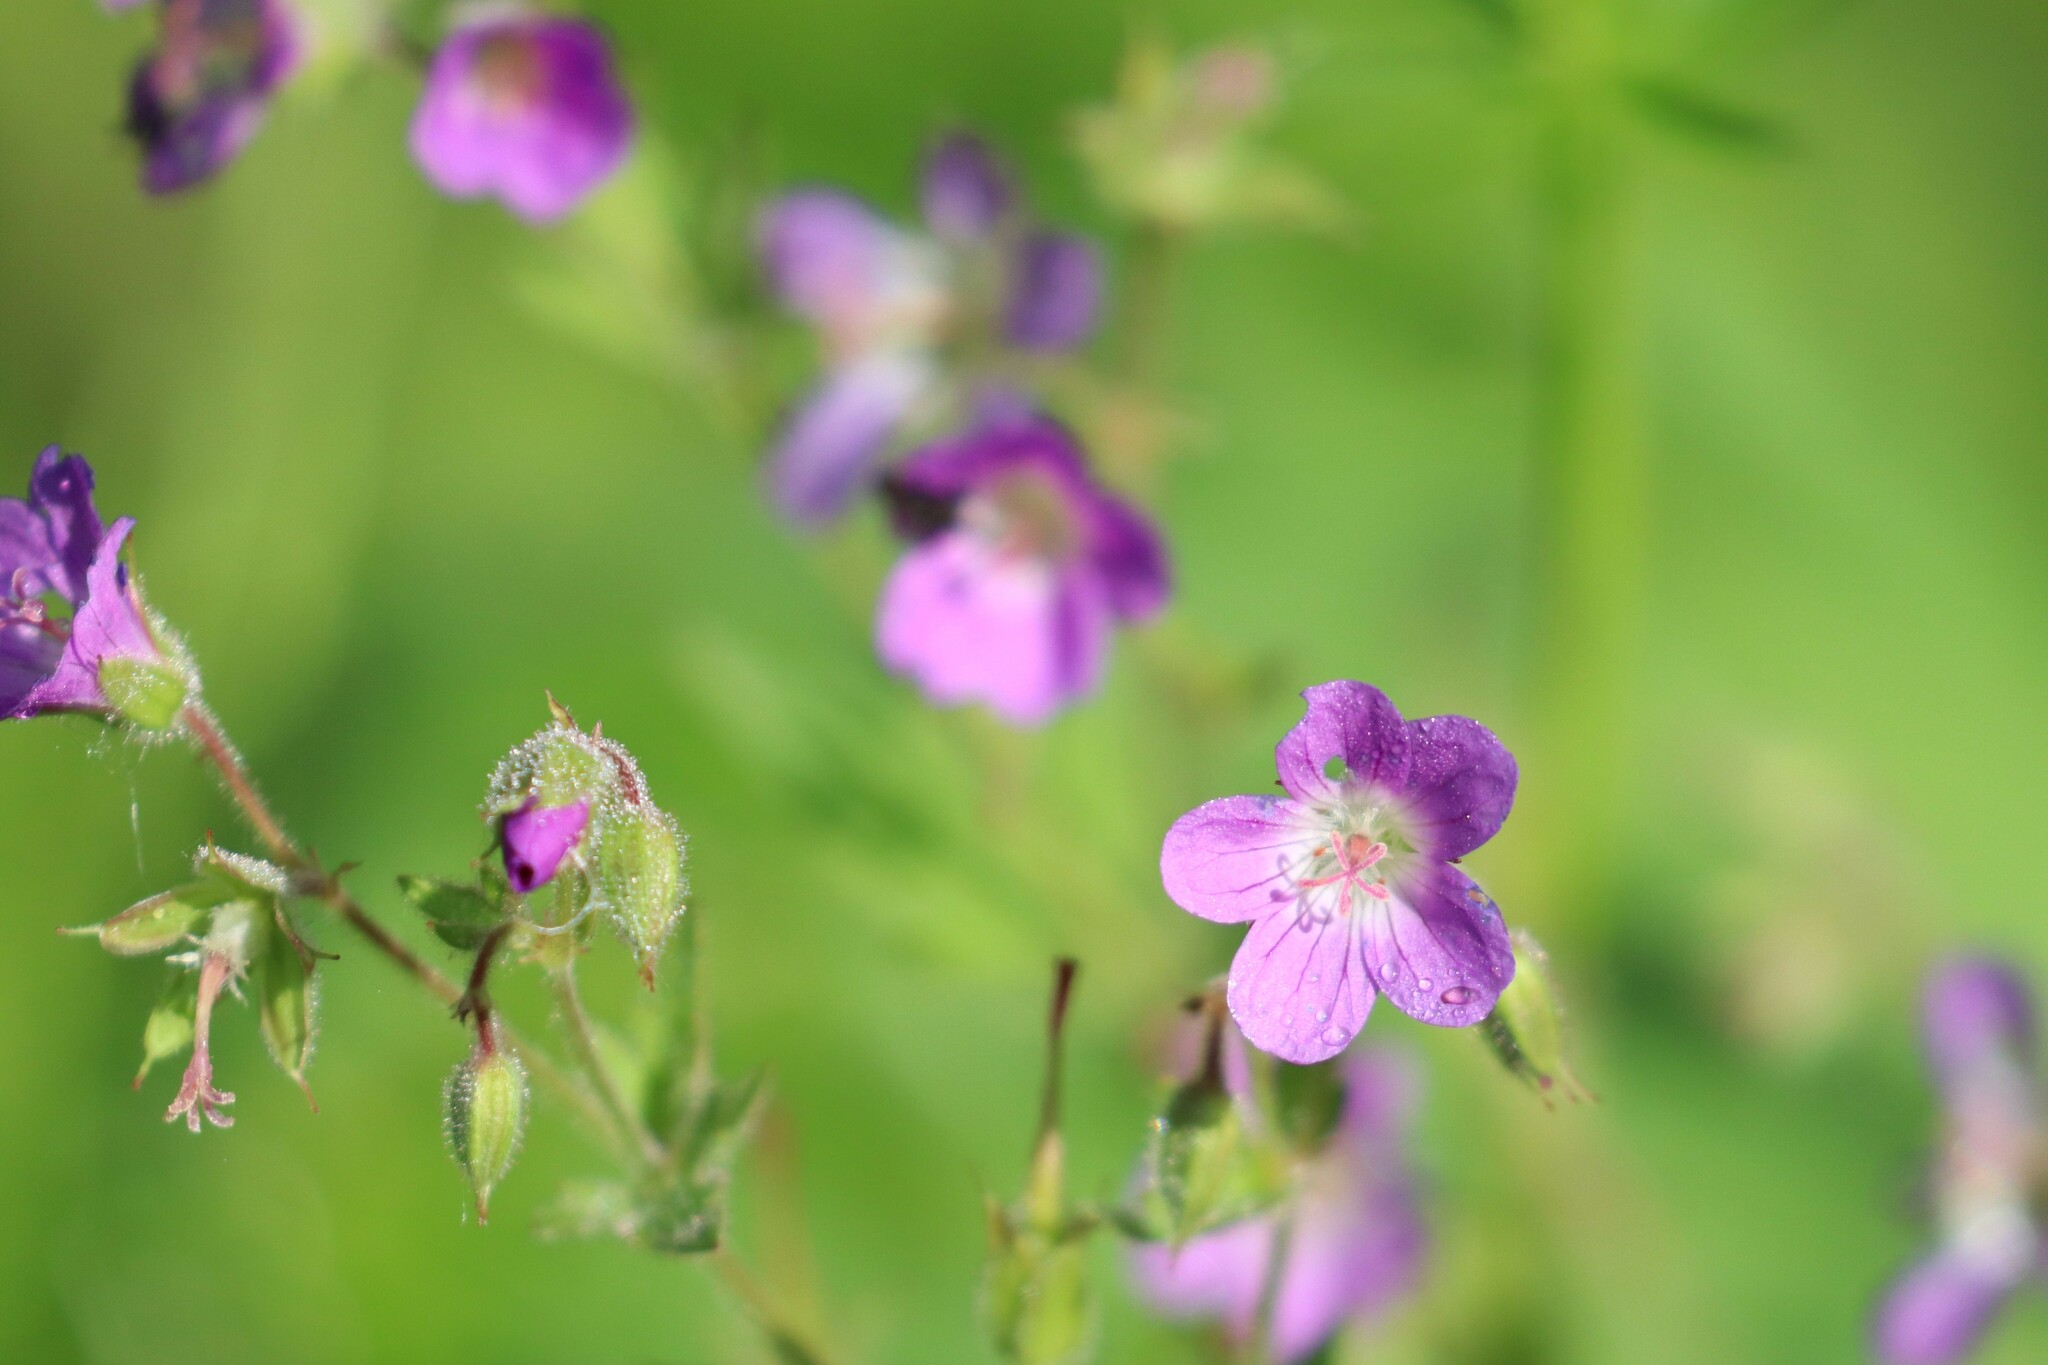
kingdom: Plantae
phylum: Tracheophyta
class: Magnoliopsida
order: Geraniales
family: Geraniaceae
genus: Geranium
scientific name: Geranium sylvaticum
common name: Wood crane's-bill
